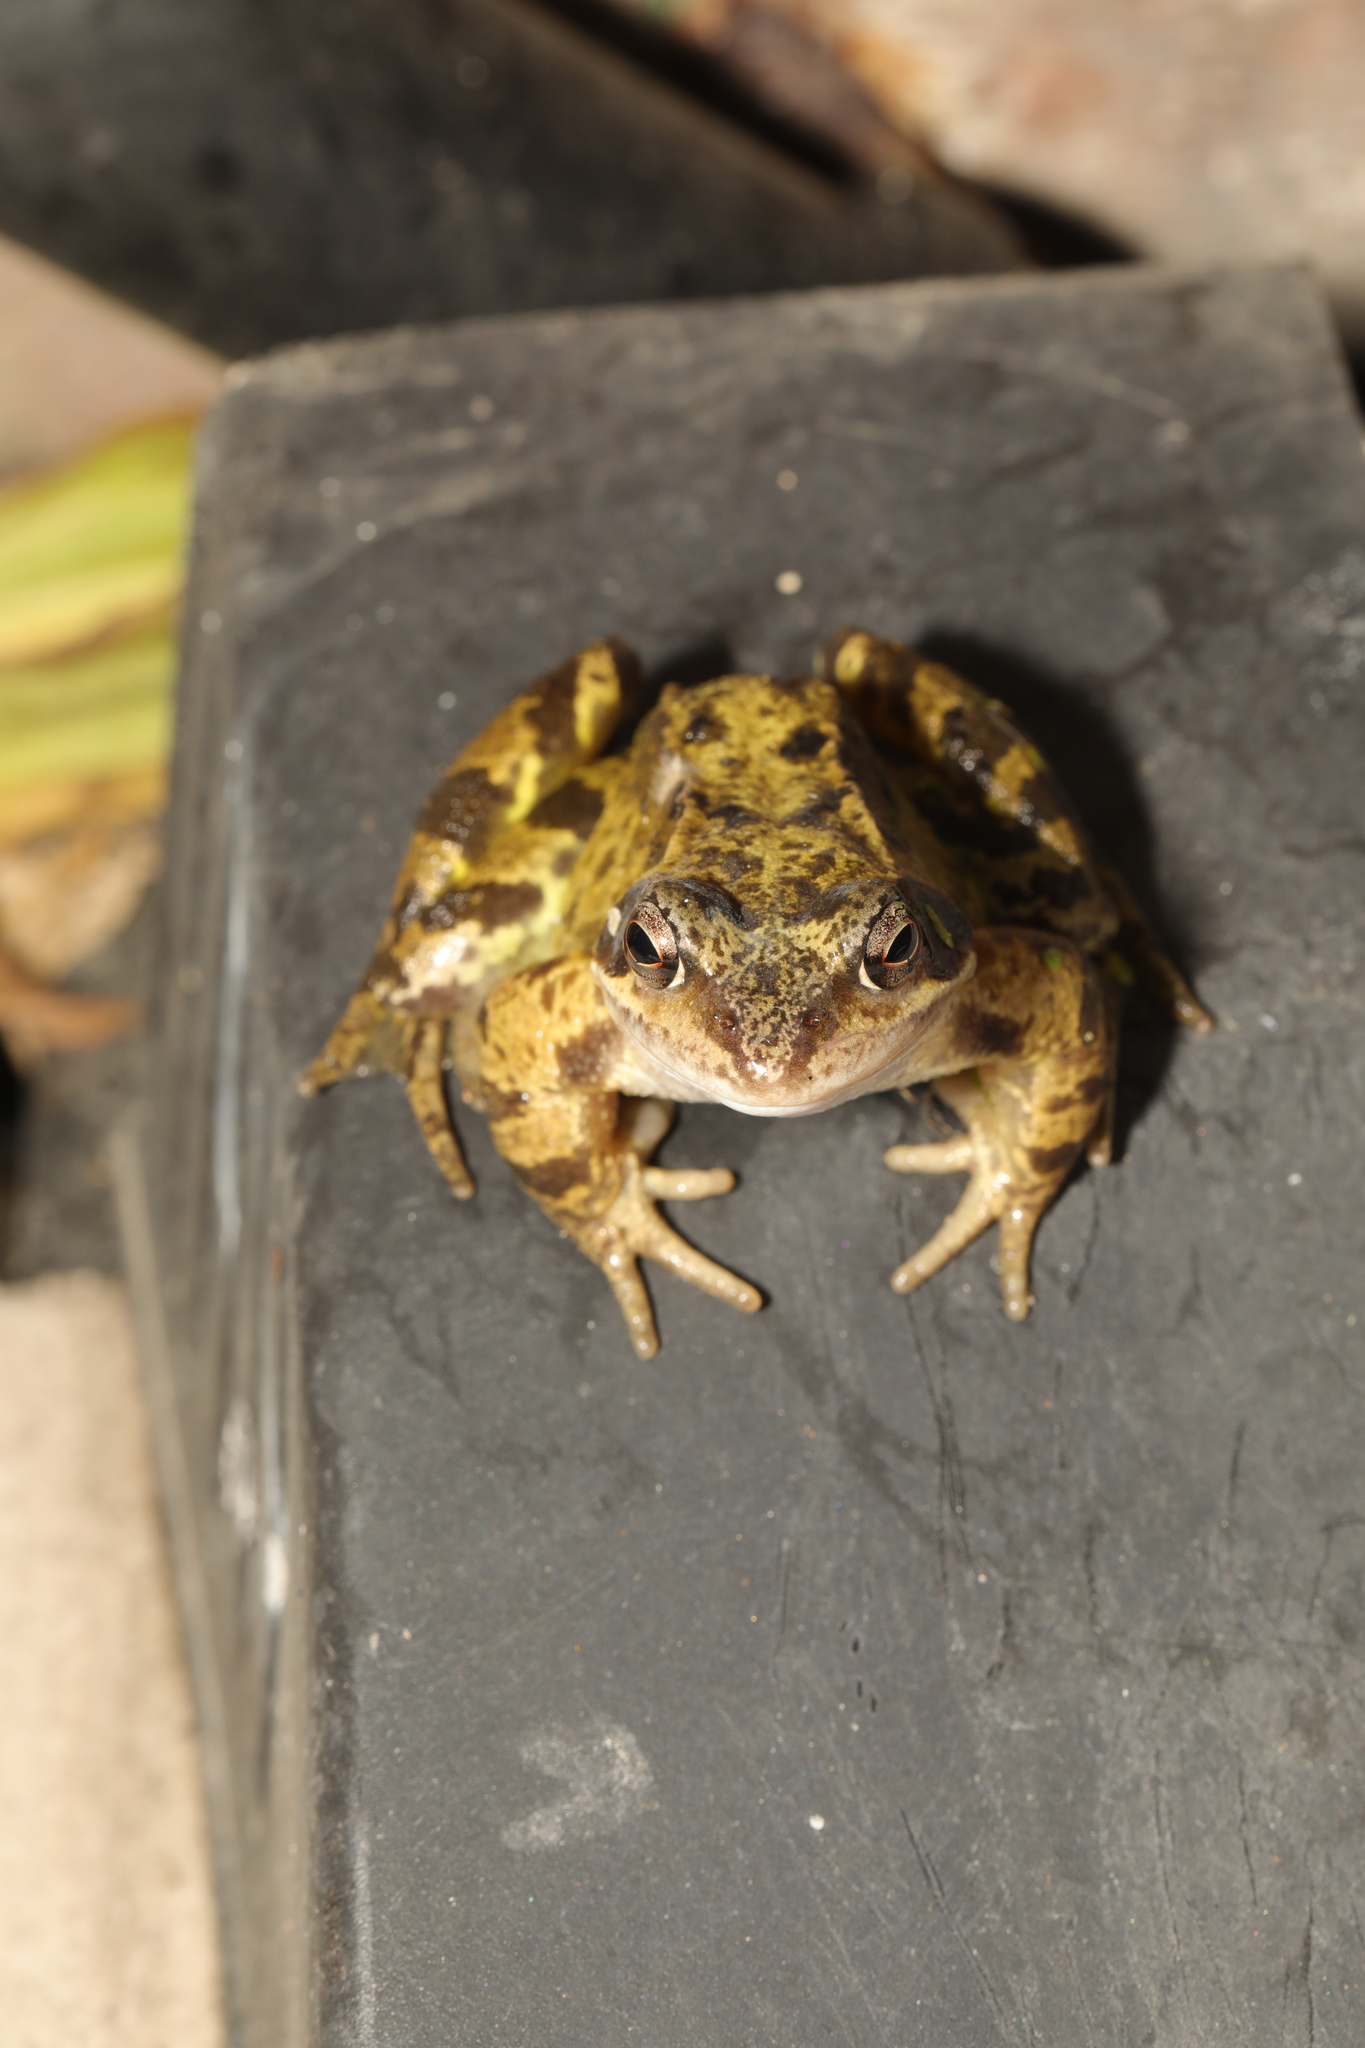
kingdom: Animalia
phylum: Chordata
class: Amphibia
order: Anura
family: Ranidae
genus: Rana
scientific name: Rana temporaria
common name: Common frog
